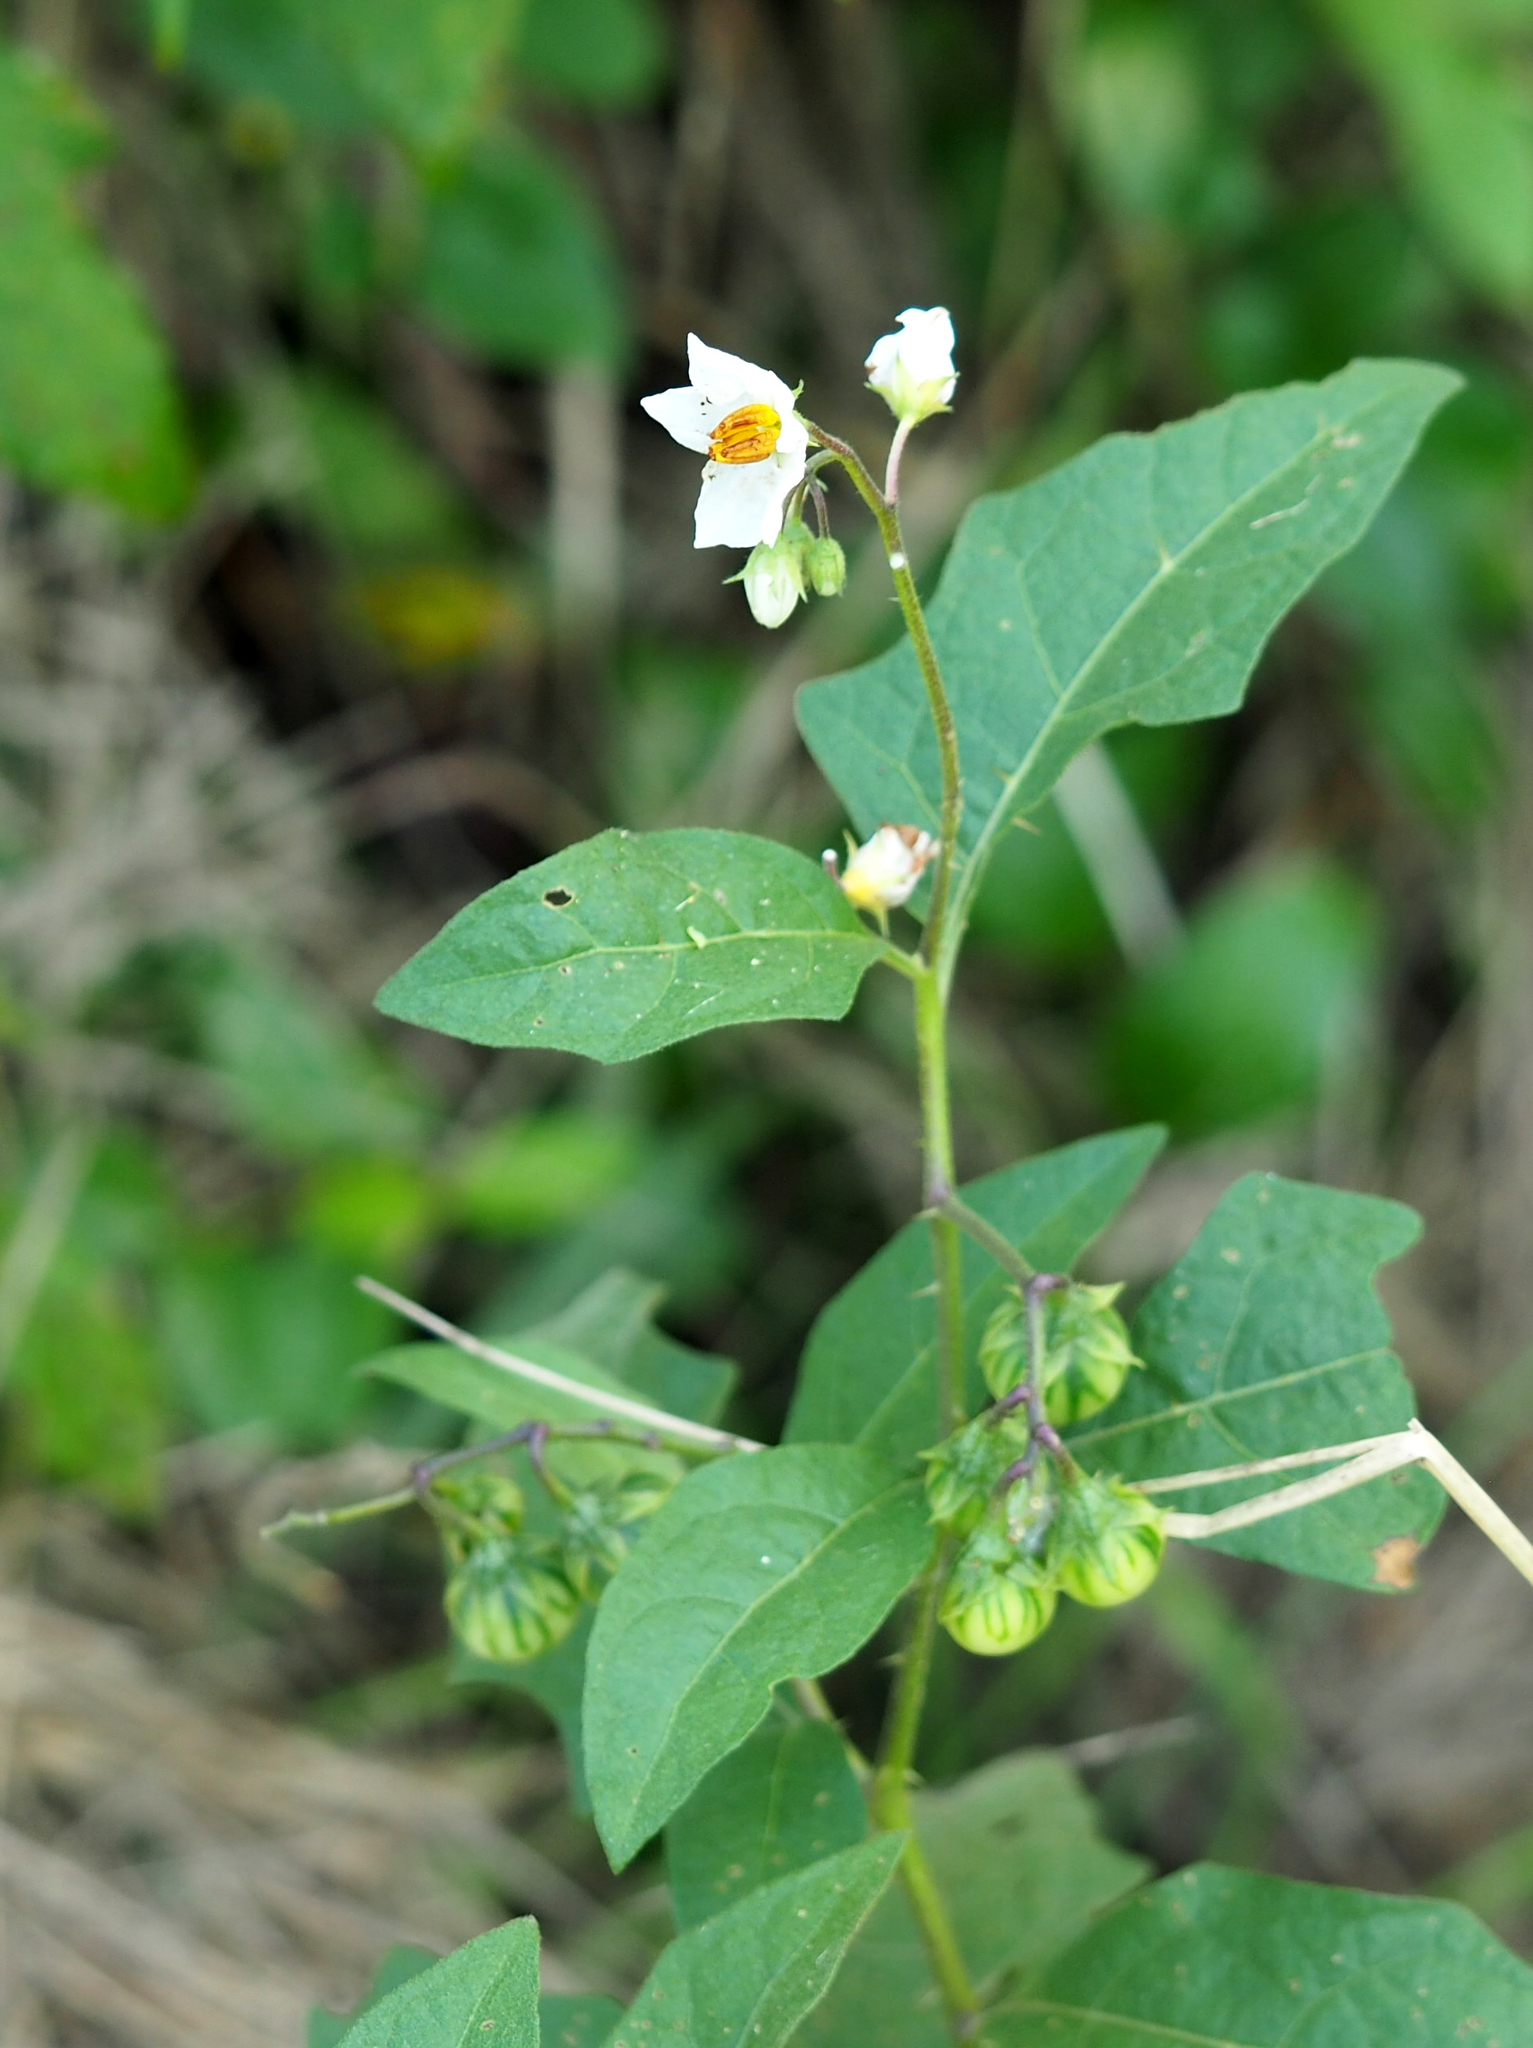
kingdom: Plantae
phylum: Tracheophyta
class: Magnoliopsida
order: Solanales
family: Solanaceae
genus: Solanum
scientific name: Solanum carolinense
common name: Horse-nettle
